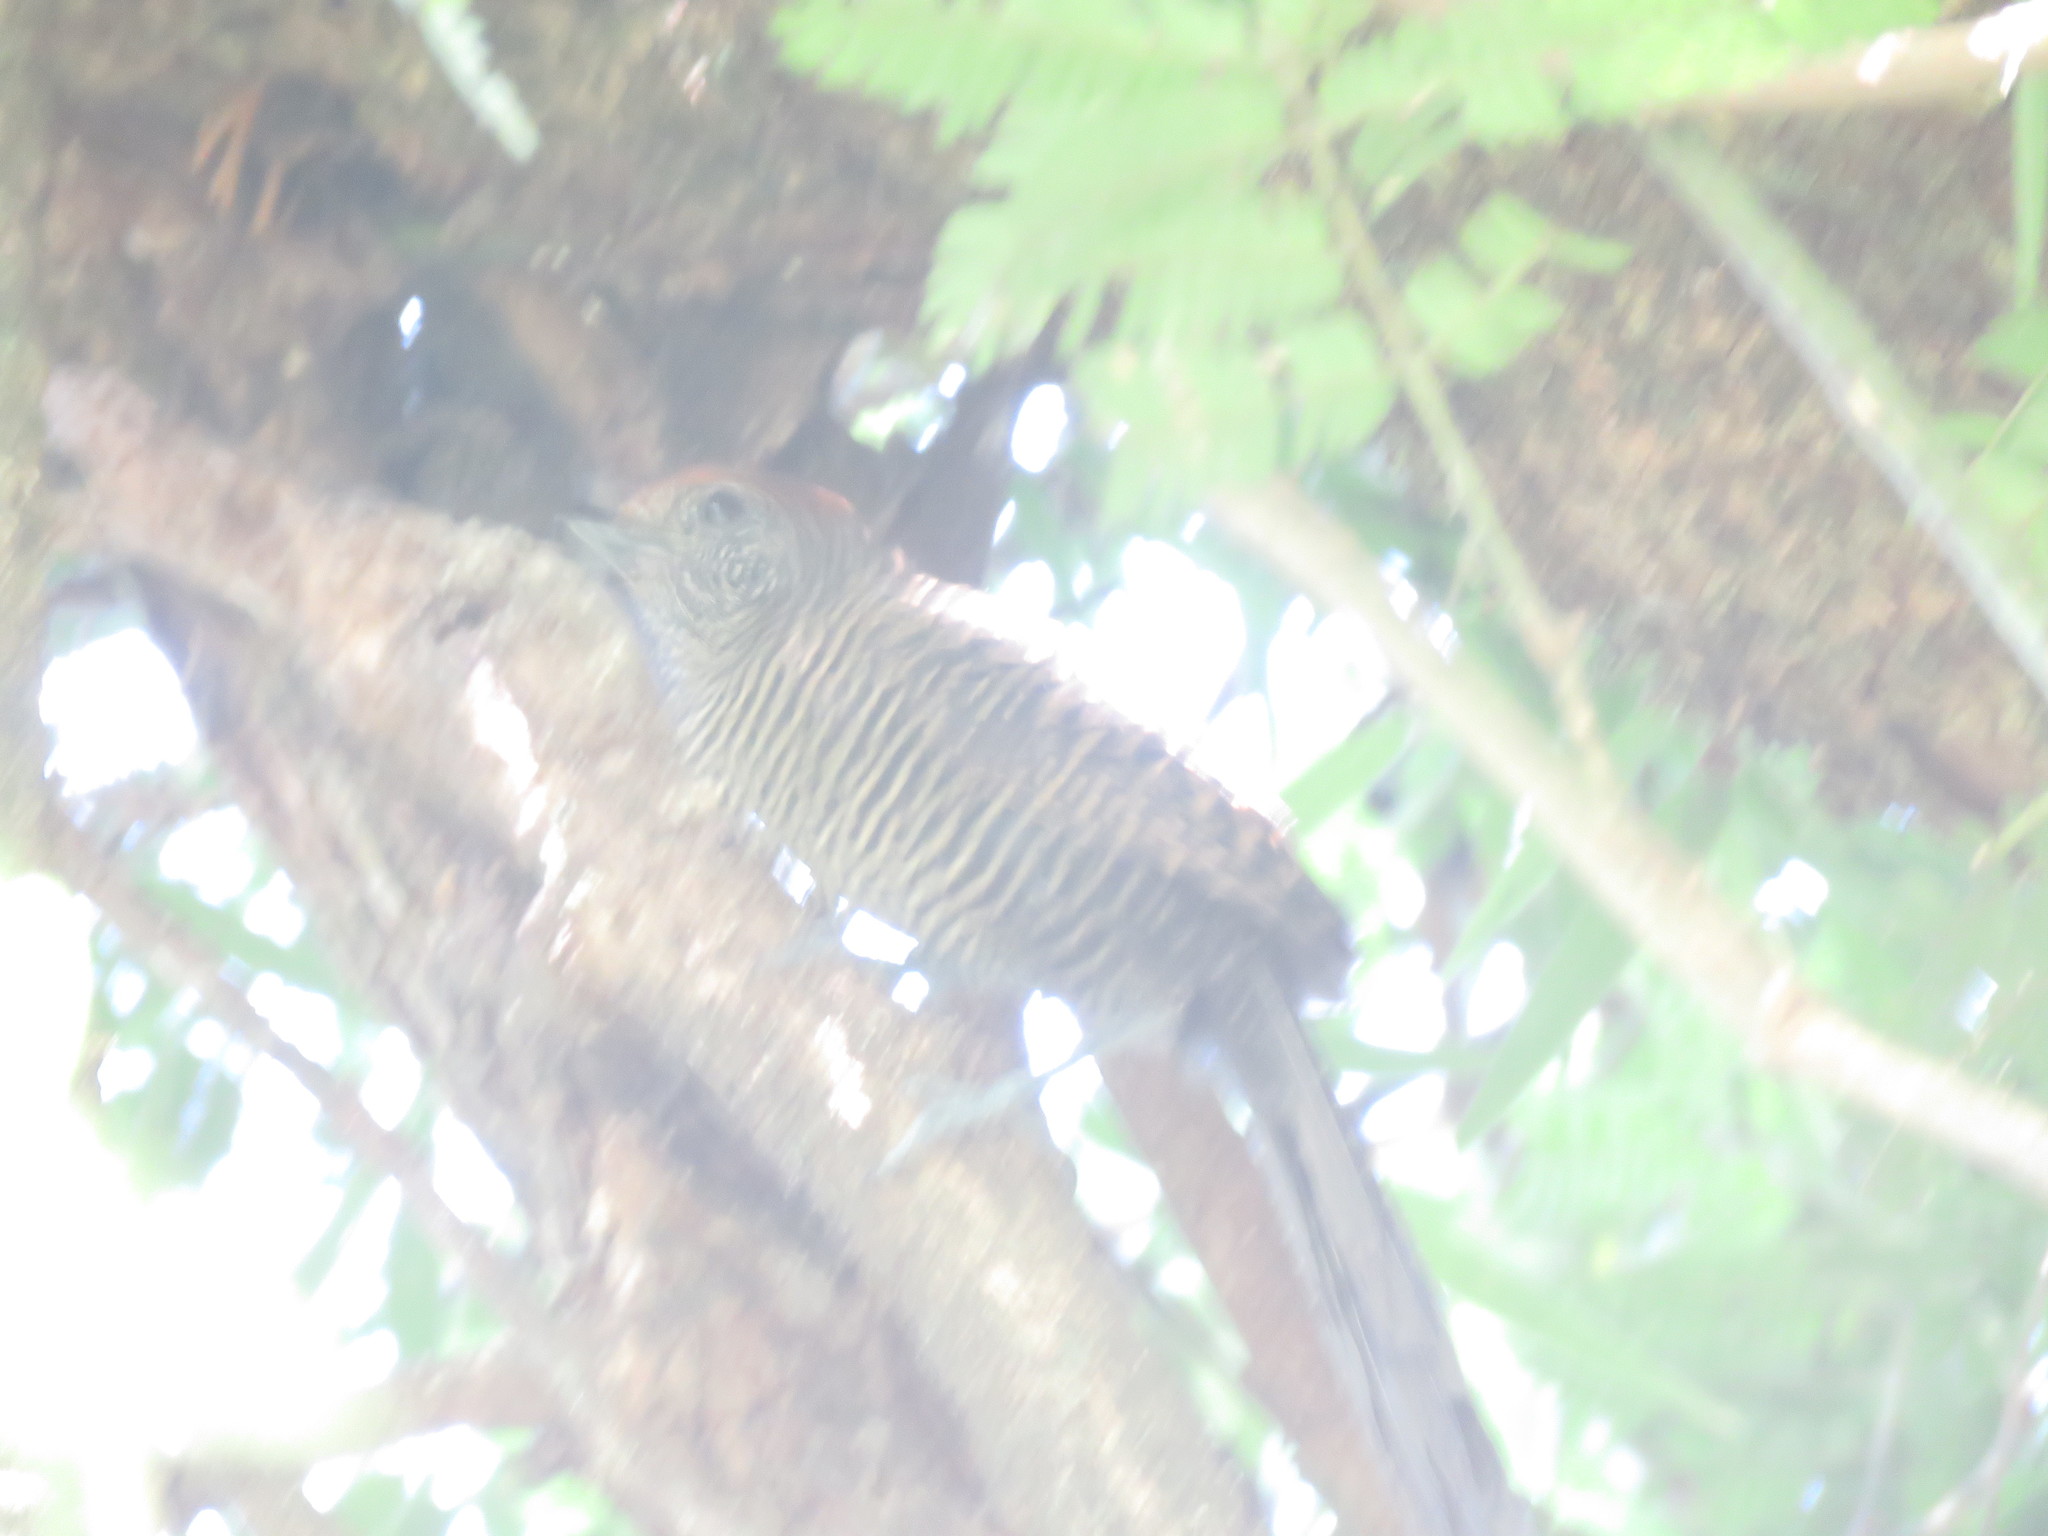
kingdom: Animalia
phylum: Chordata
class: Aves
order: Passeriformes
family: Thamnophilidae
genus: Mackenziaena
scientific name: Mackenziaena severa
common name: Tufted antshrike
